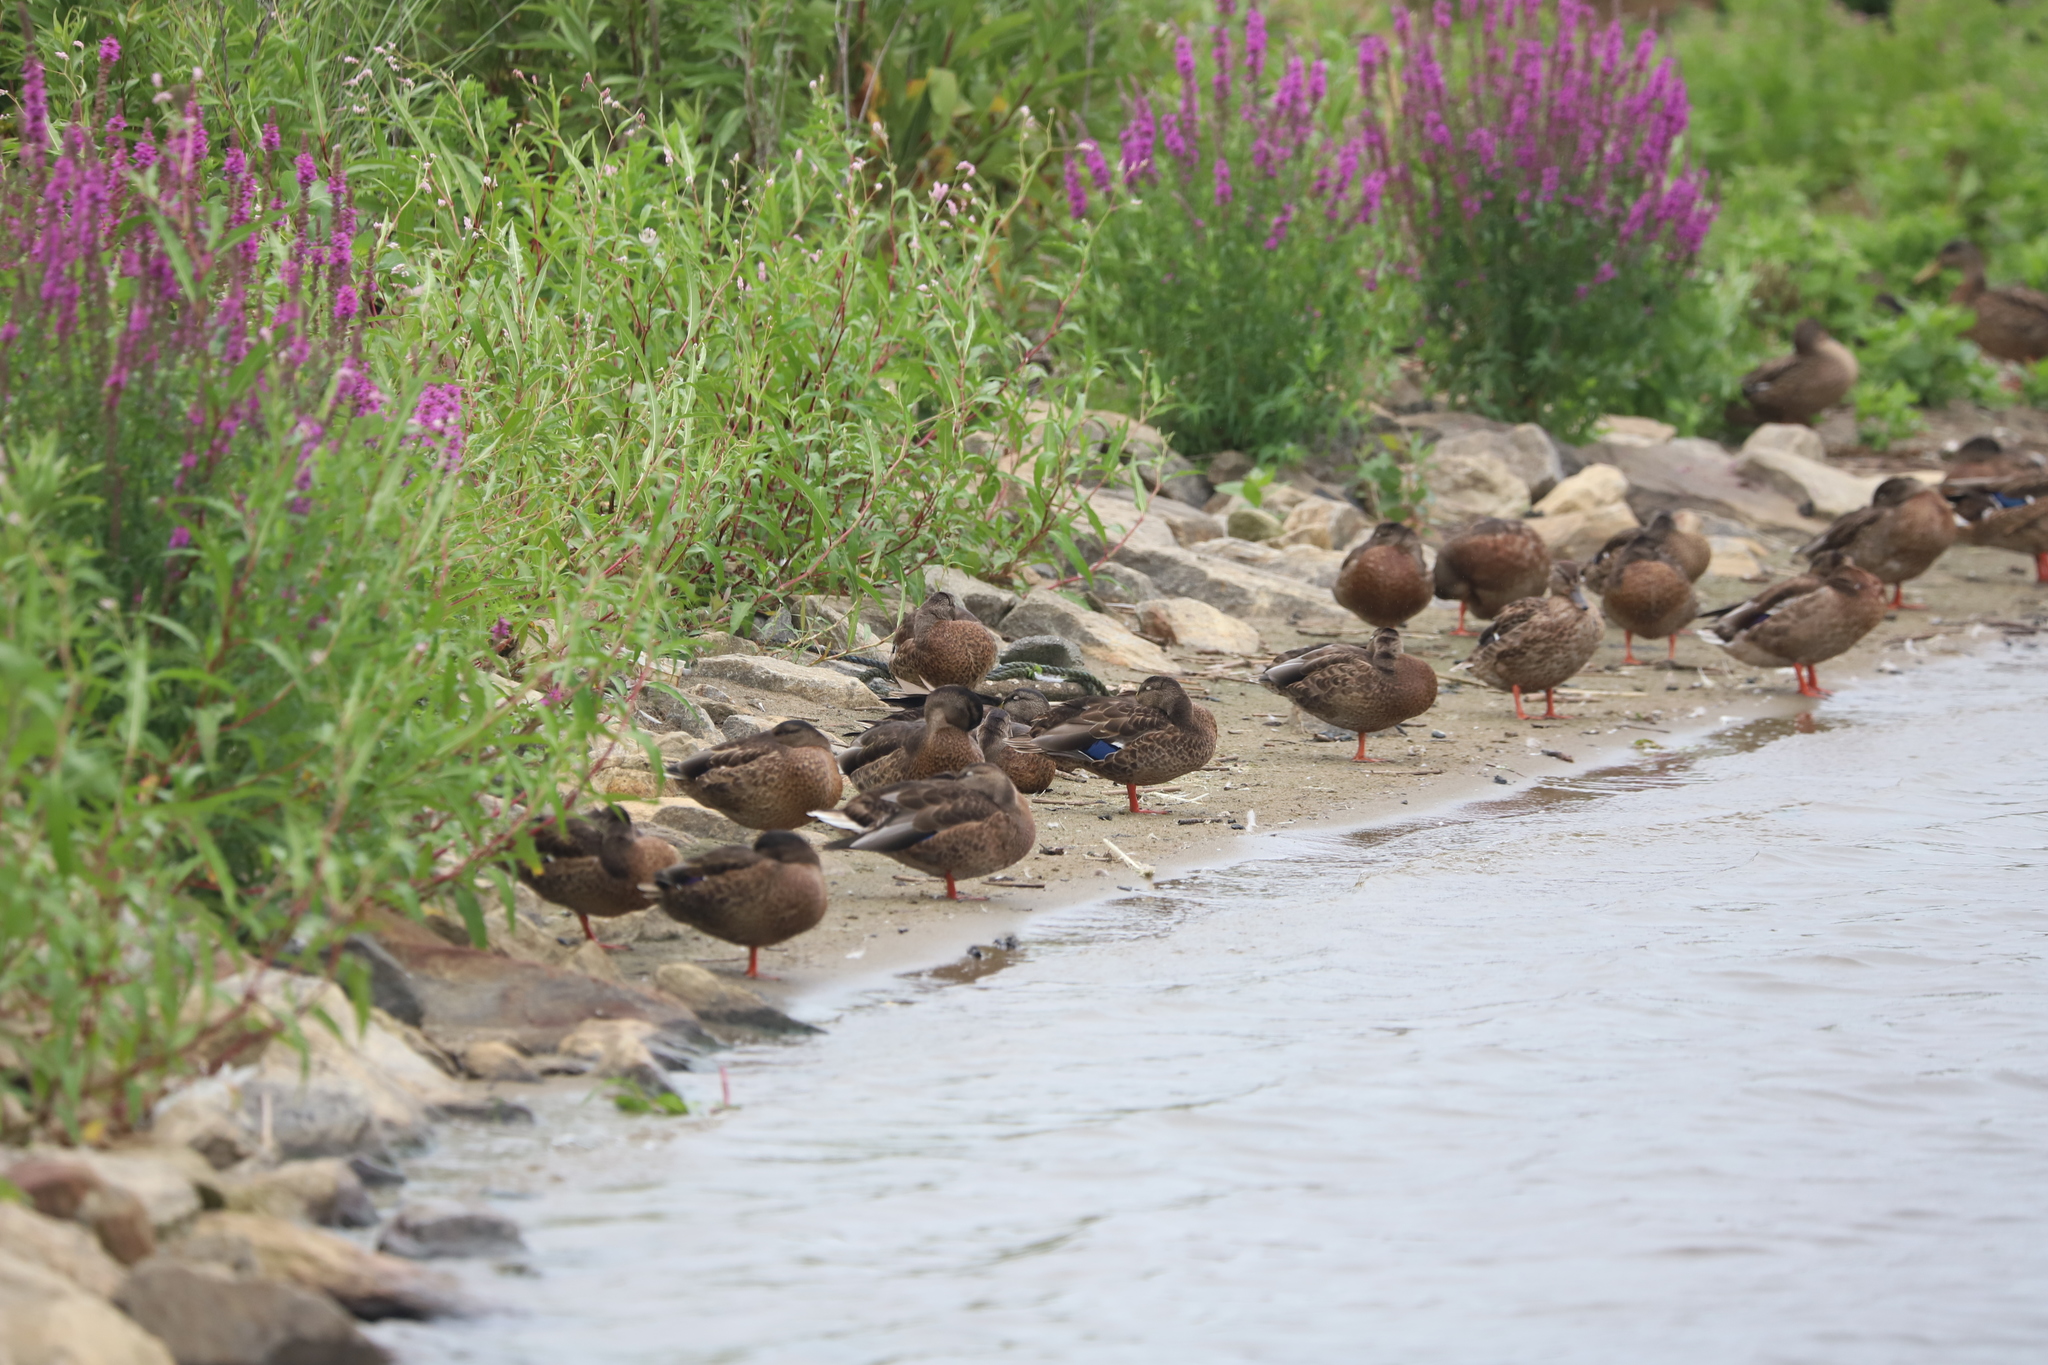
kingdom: Animalia
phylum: Chordata
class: Aves
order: Anseriformes
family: Anatidae
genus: Anas
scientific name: Anas platyrhynchos
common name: Mallard
